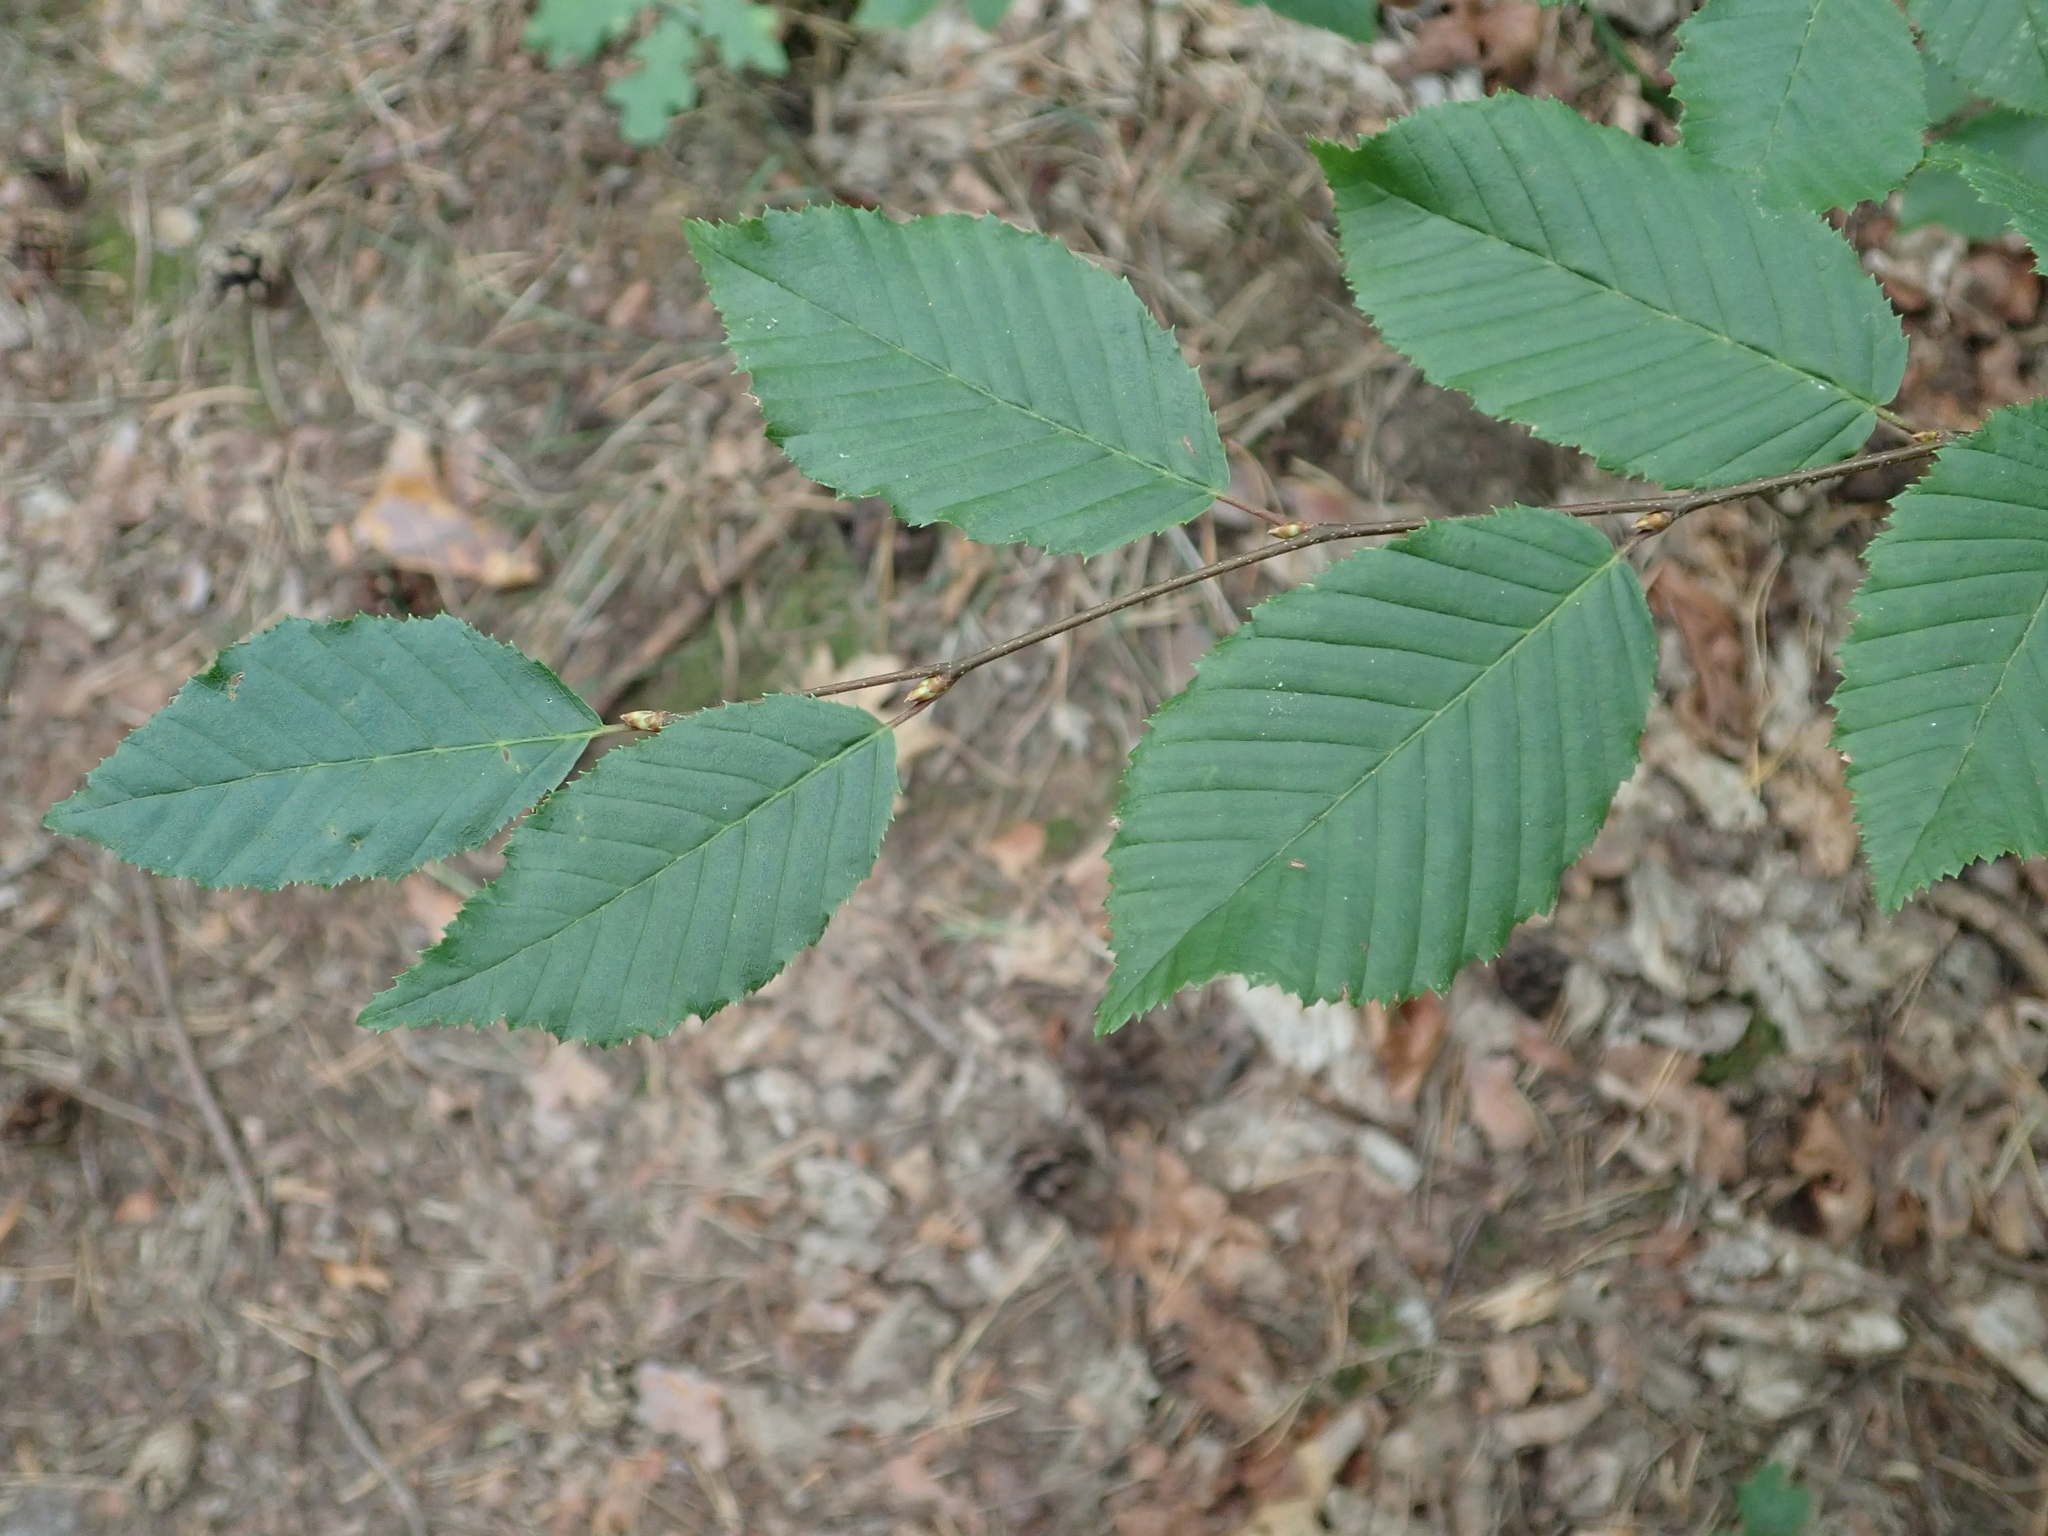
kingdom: Plantae
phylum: Tracheophyta
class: Magnoliopsida
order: Fagales
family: Betulaceae
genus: Carpinus
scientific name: Carpinus betulus
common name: Hornbeam
